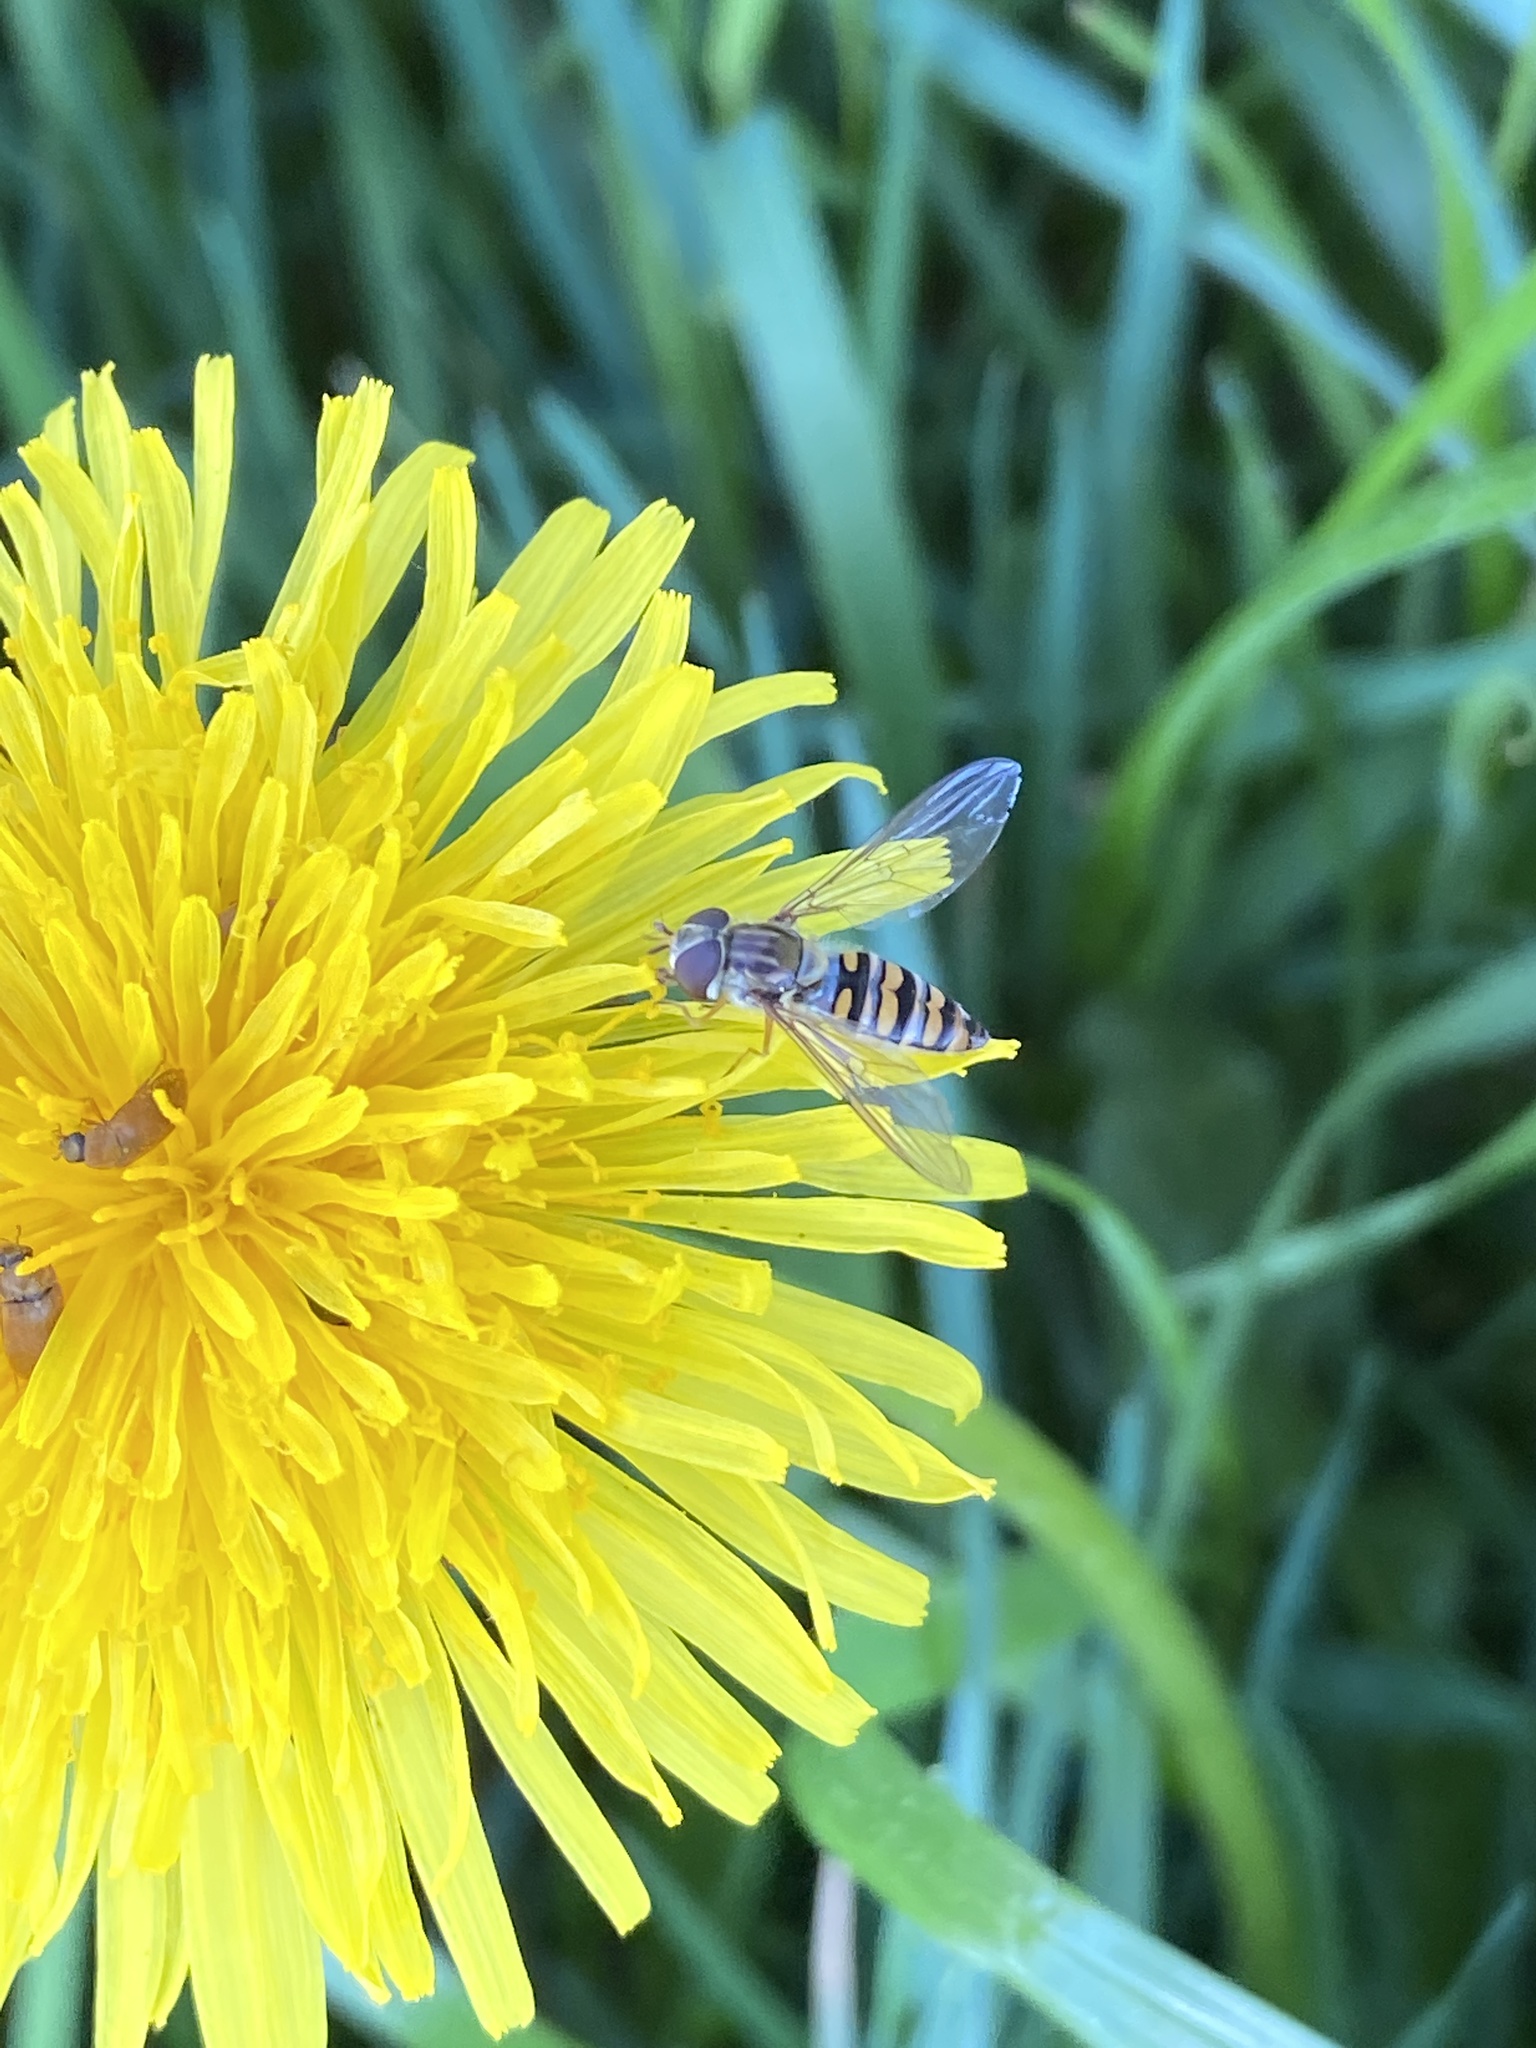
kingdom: Animalia
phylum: Arthropoda
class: Insecta
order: Diptera
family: Syrphidae
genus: Episyrphus
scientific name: Episyrphus balteatus
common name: Marmalade hoverfly
